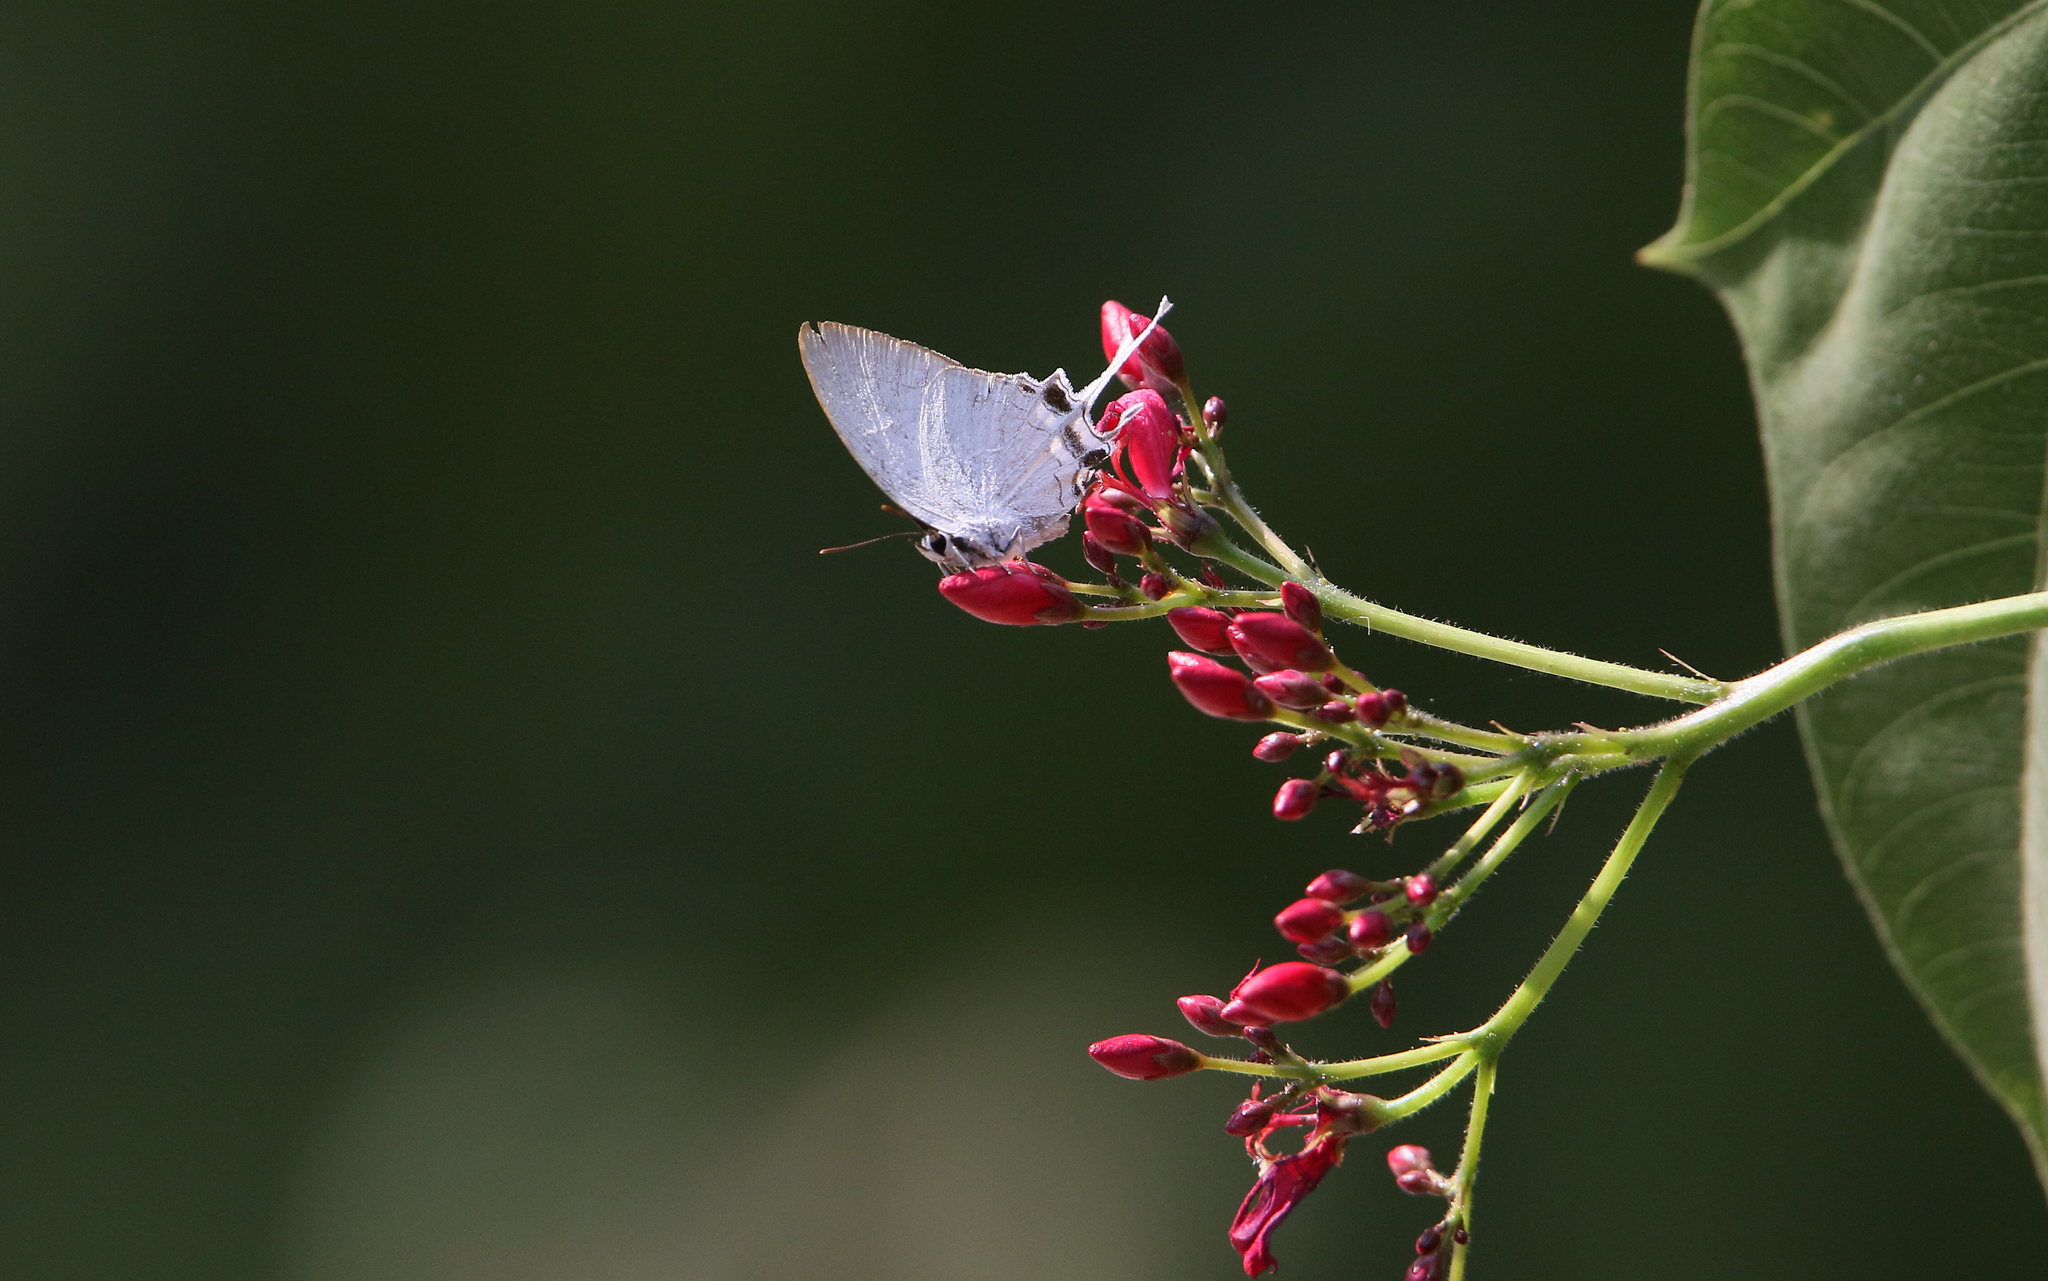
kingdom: Animalia
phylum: Arthropoda
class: Insecta
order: Lepidoptera
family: Lycaenidae
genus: Cheritra
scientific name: Cheritra freja
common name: Common imperial
